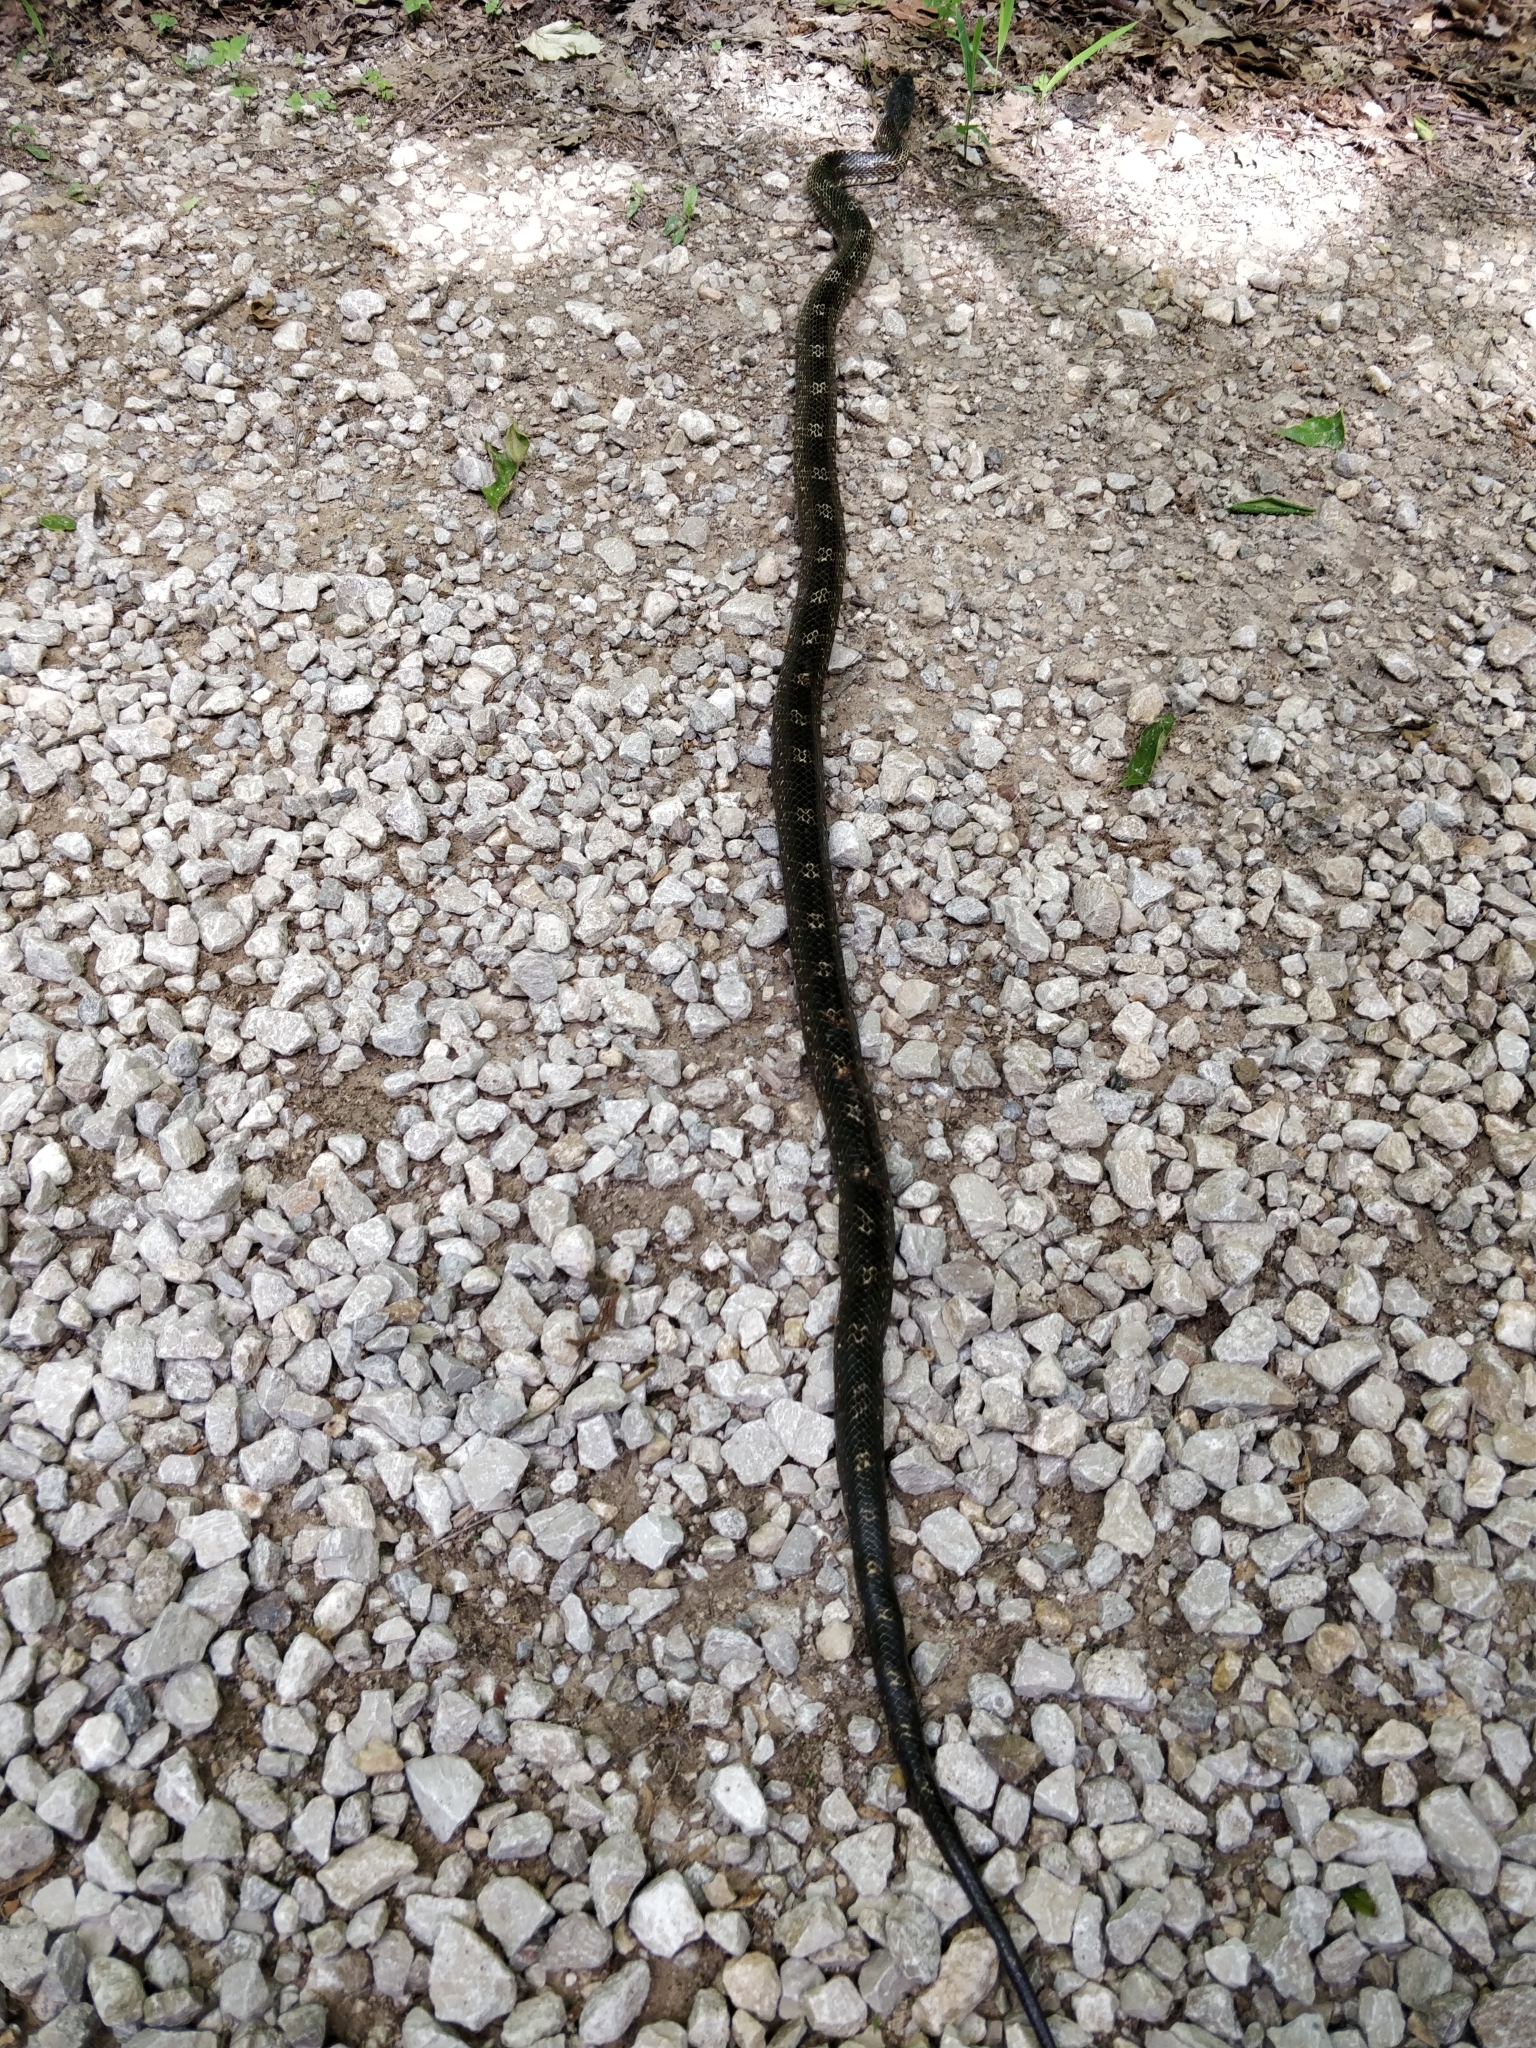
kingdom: Animalia
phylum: Chordata
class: Squamata
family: Colubridae
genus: Pantherophis
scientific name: Pantherophis spiloides
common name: Gray rat snake
